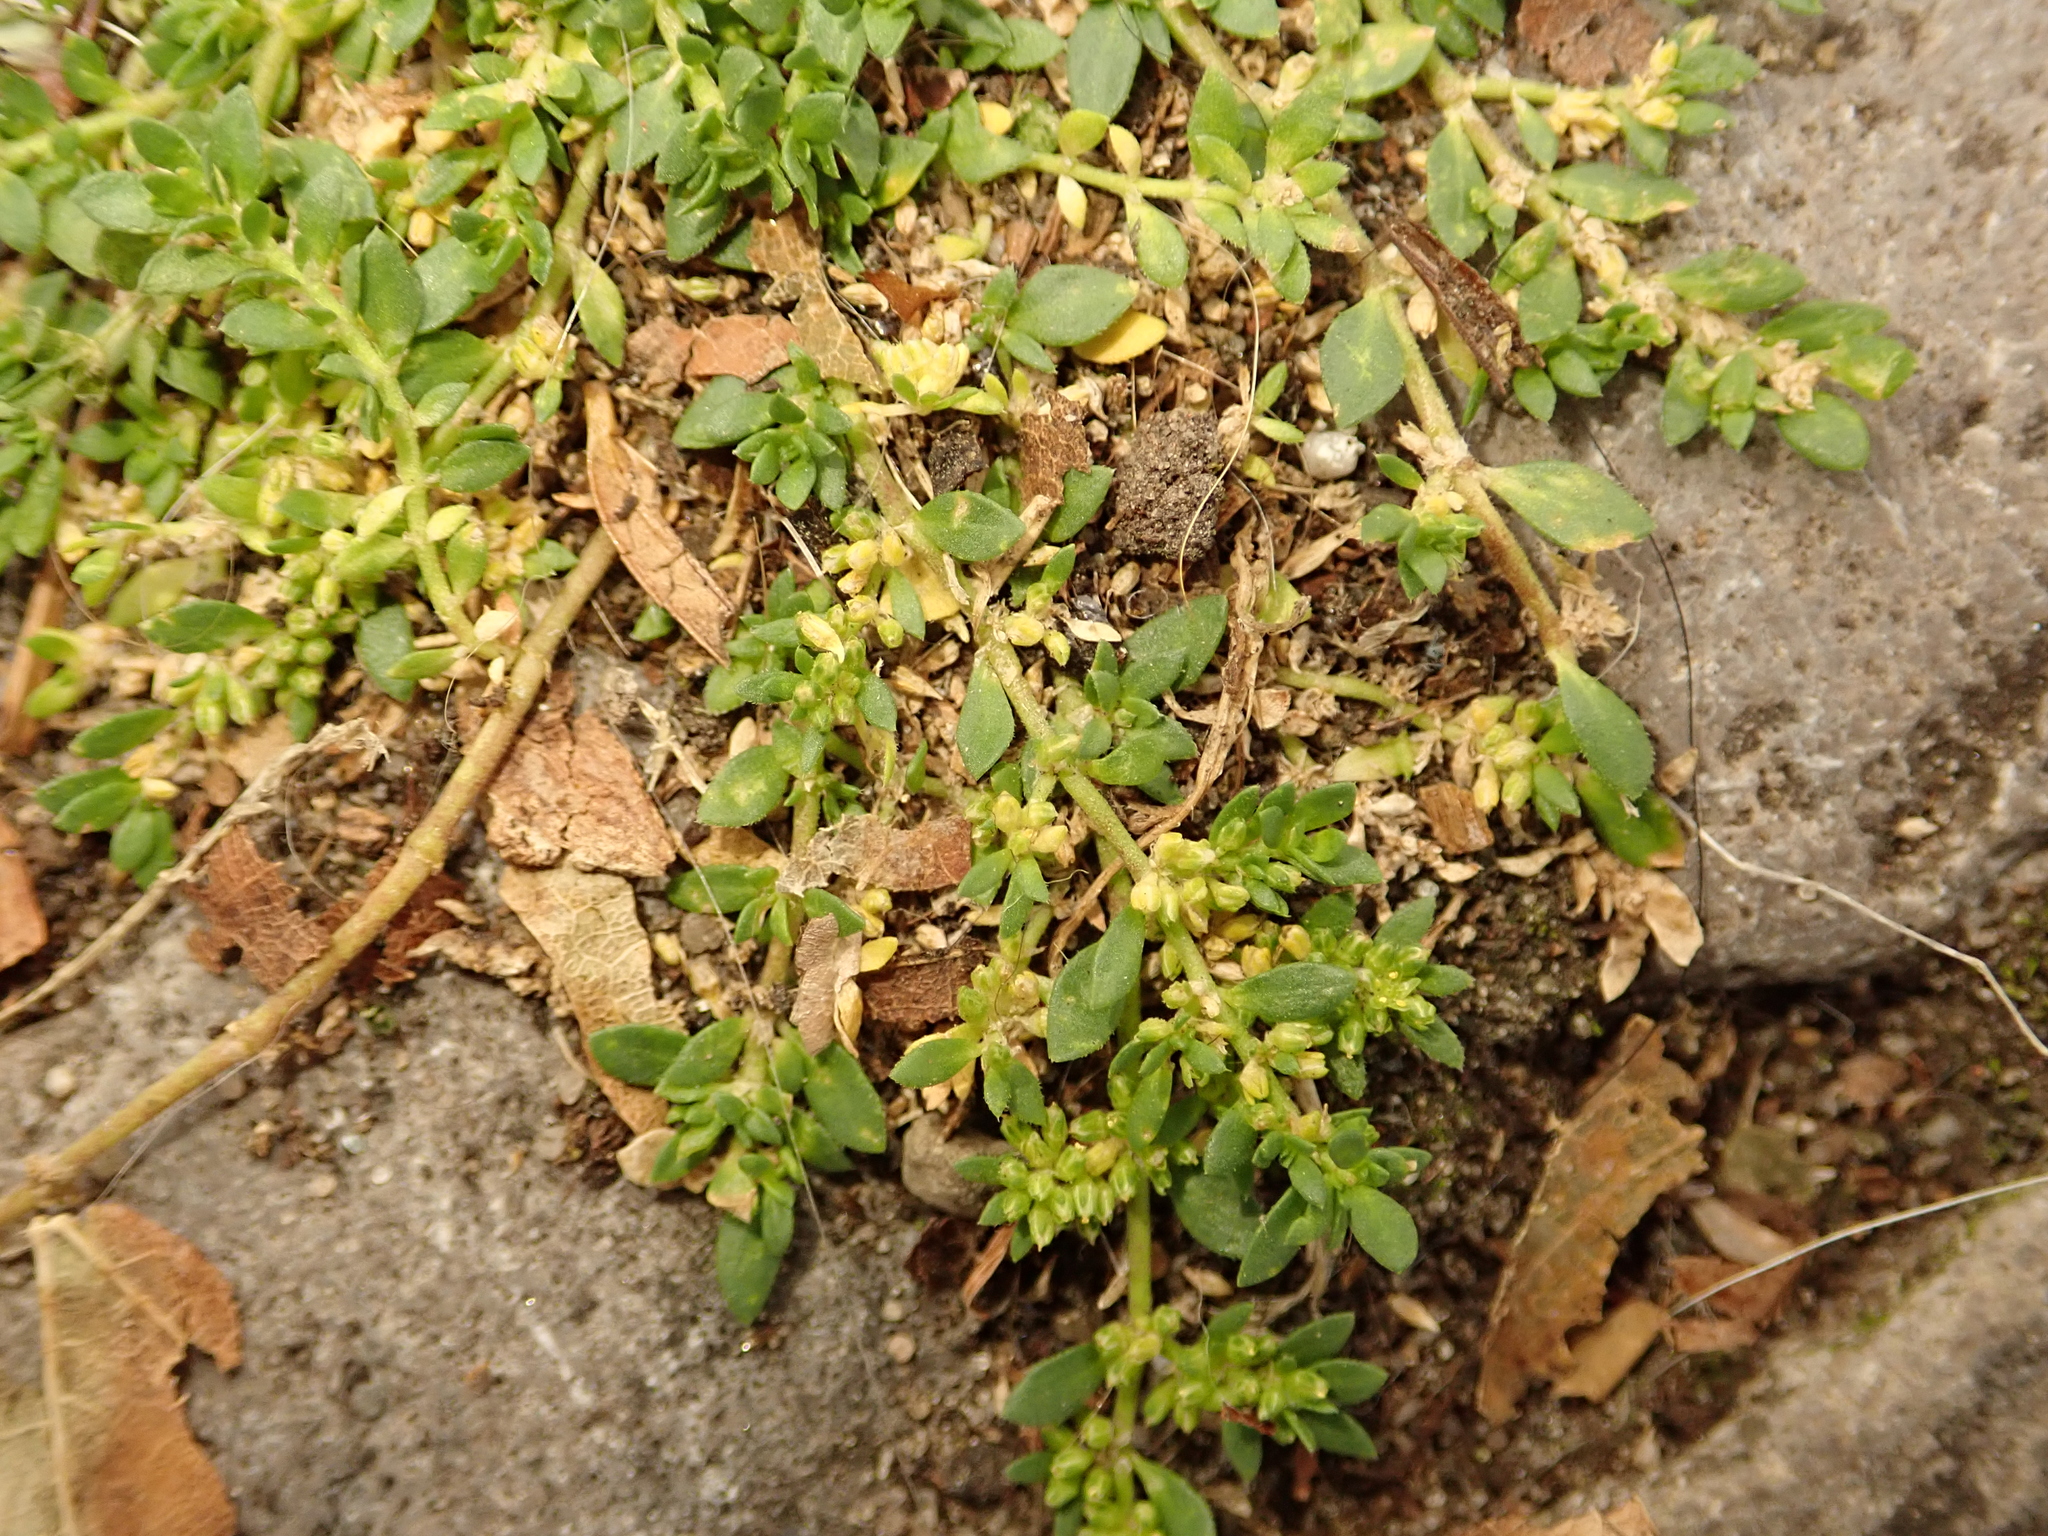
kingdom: Plantae
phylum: Tracheophyta
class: Magnoliopsida
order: Caryophyllales
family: Caryophyllaceae
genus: Herniaria
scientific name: Herniaria glabra
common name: Smooth rupturewort
